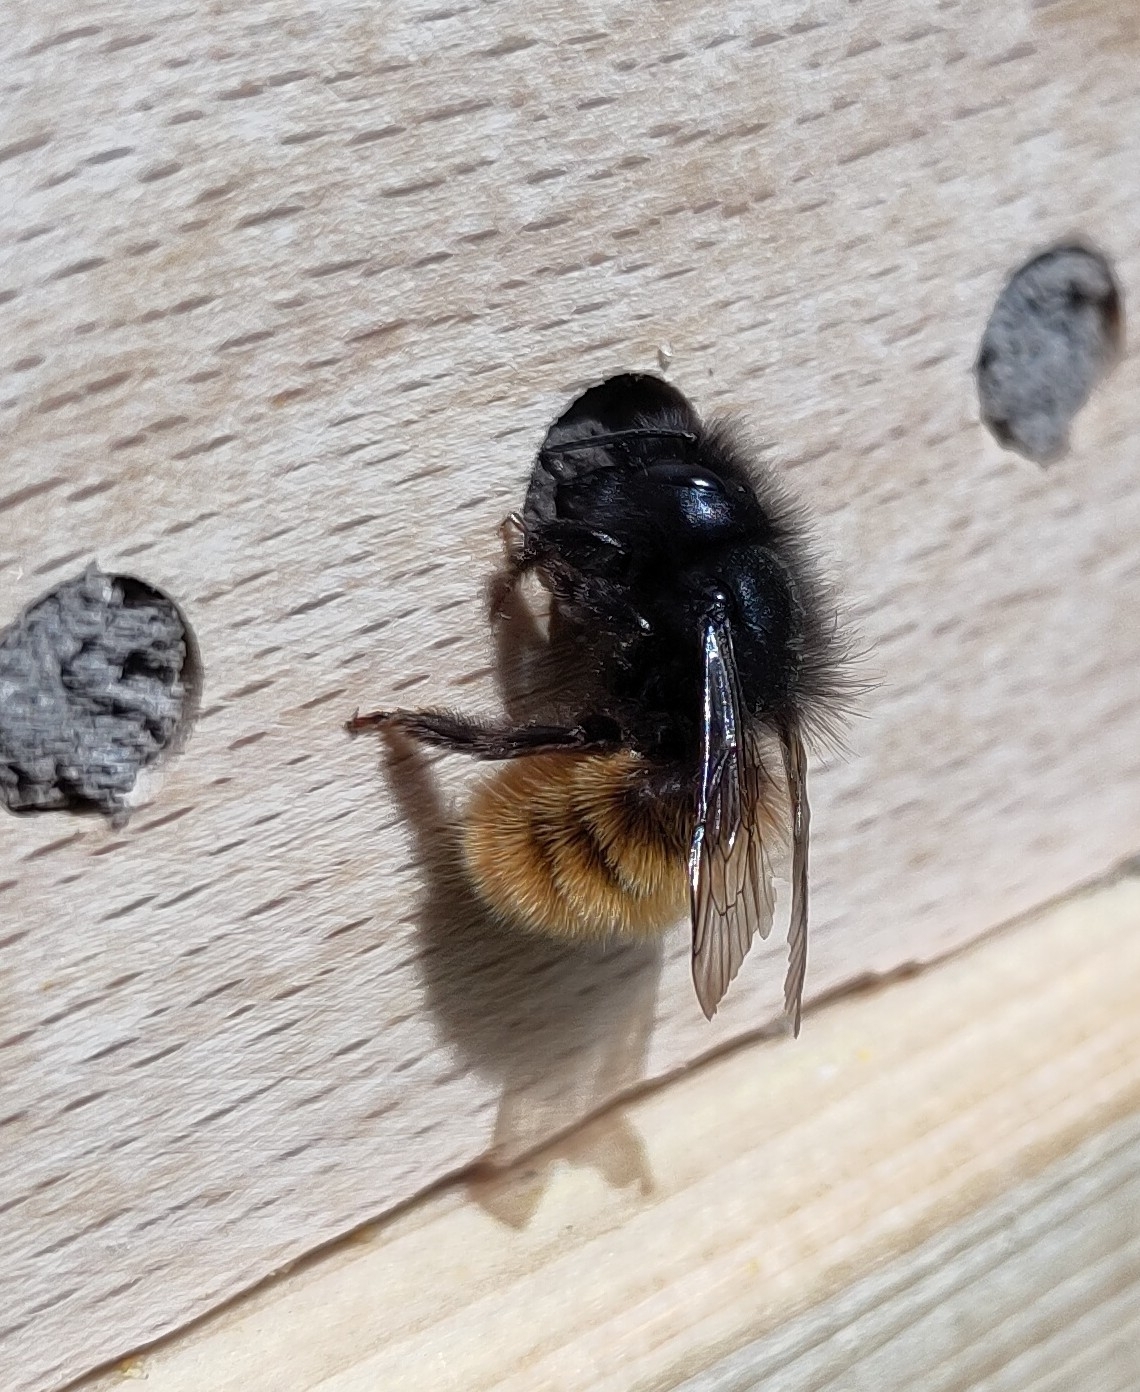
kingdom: Animalia
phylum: Arthropoda
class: Insecta
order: Hymenoptera
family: Megachilidae
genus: Osmia
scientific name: Osmia cornuta
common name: Mason bee
